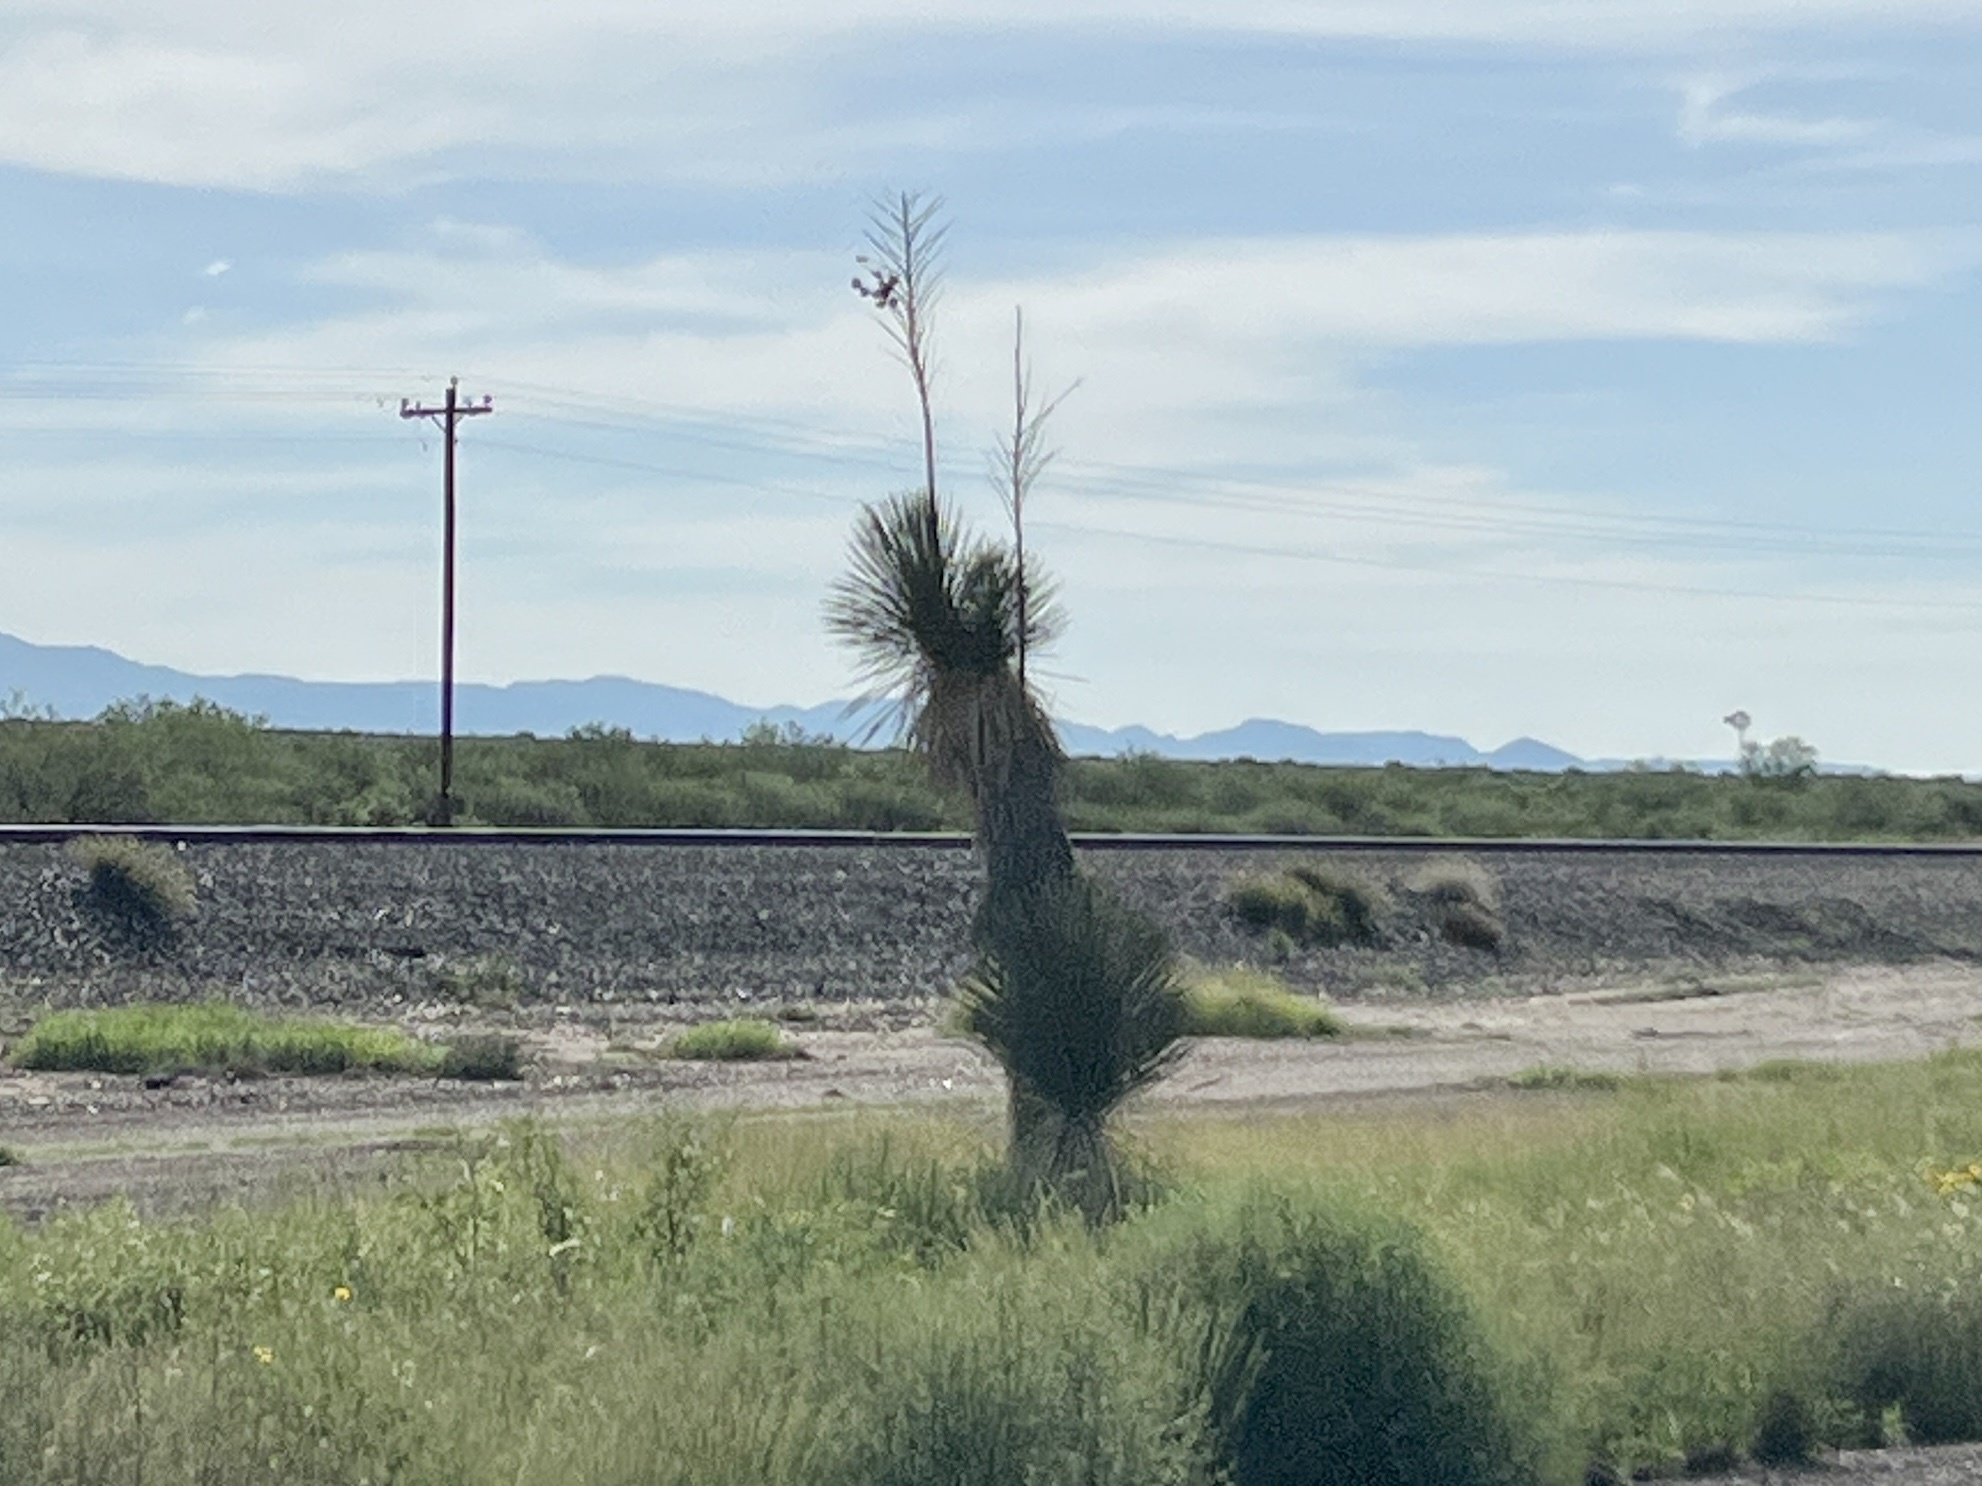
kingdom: Plantae
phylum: Tracheophyta
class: Liliopsida
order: Asparagales
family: Asparagaceae
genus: Yucca
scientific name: Yucca elata
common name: Palmella
